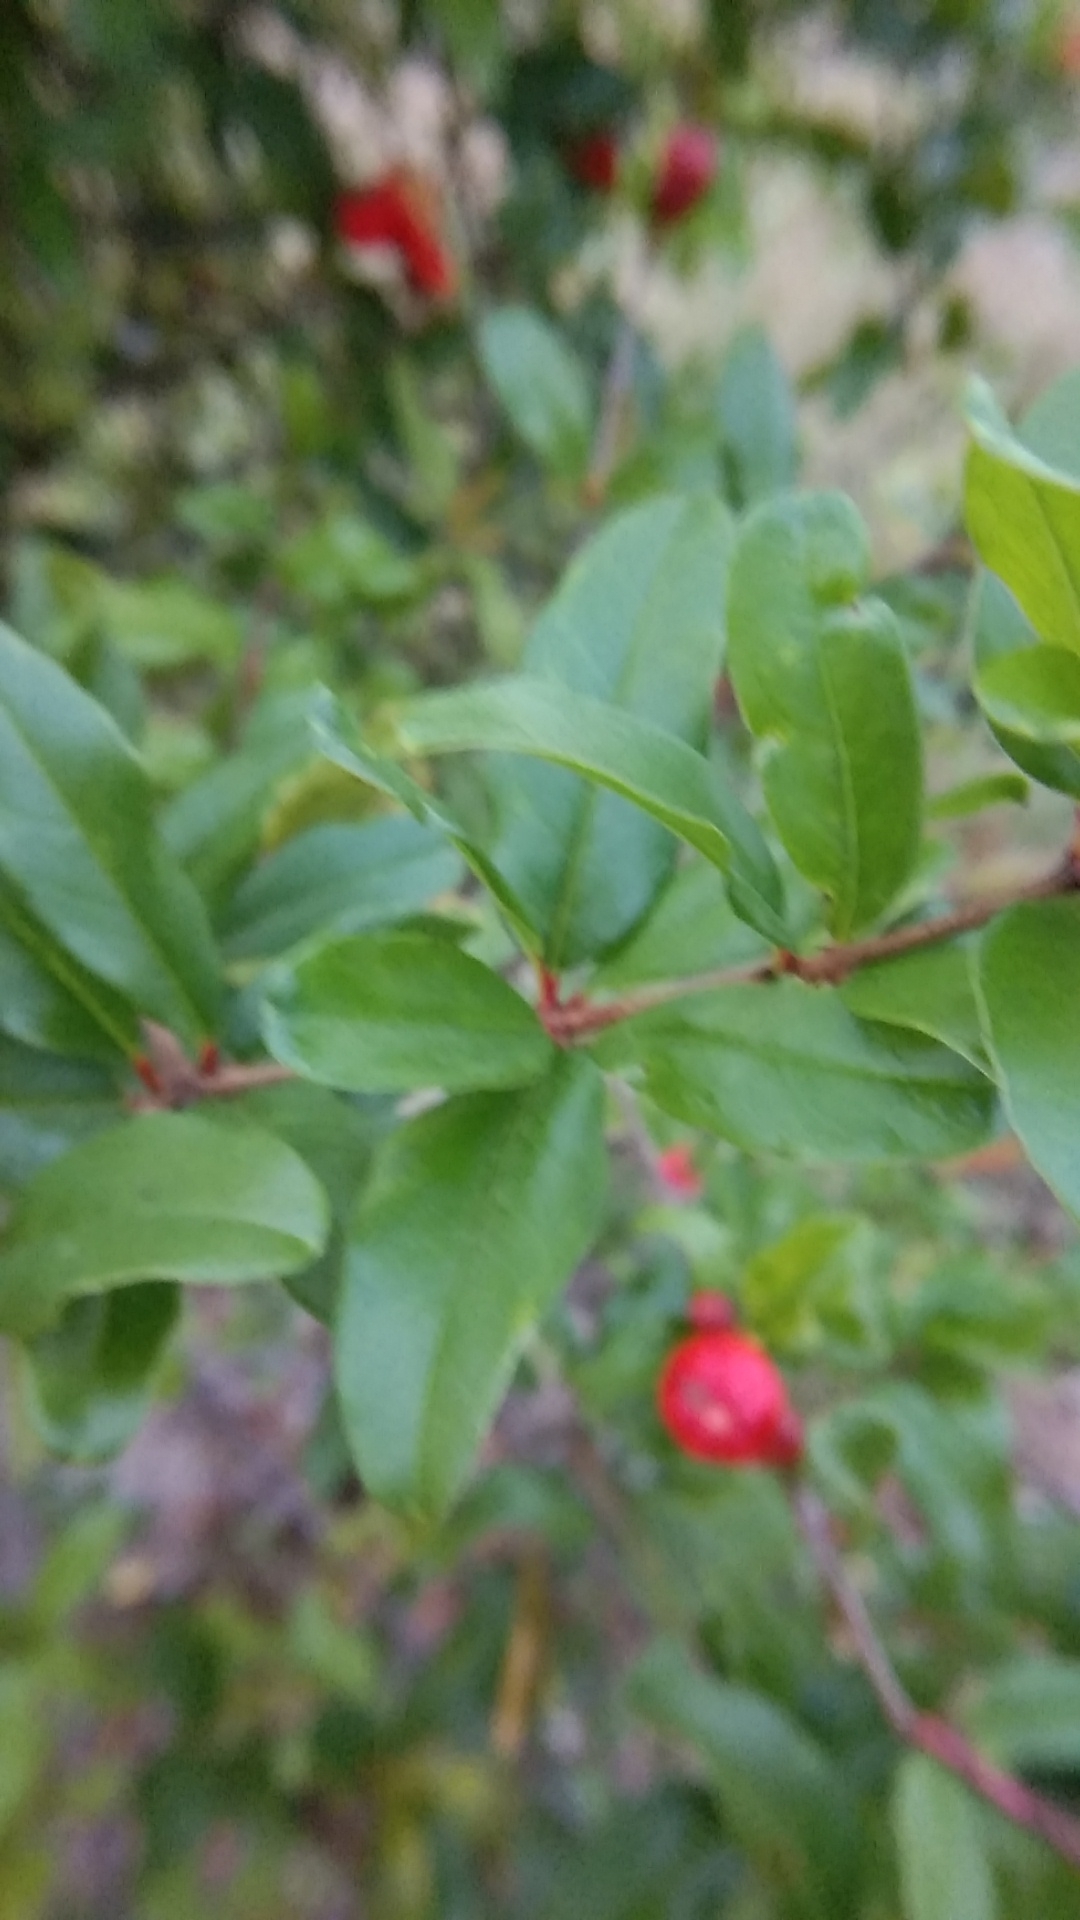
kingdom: Plantae
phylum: Tracheophyta
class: Magnoliopsida
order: Myrtales
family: Lythraceae
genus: Punica
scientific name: Punica granatum
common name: Pomegranate
